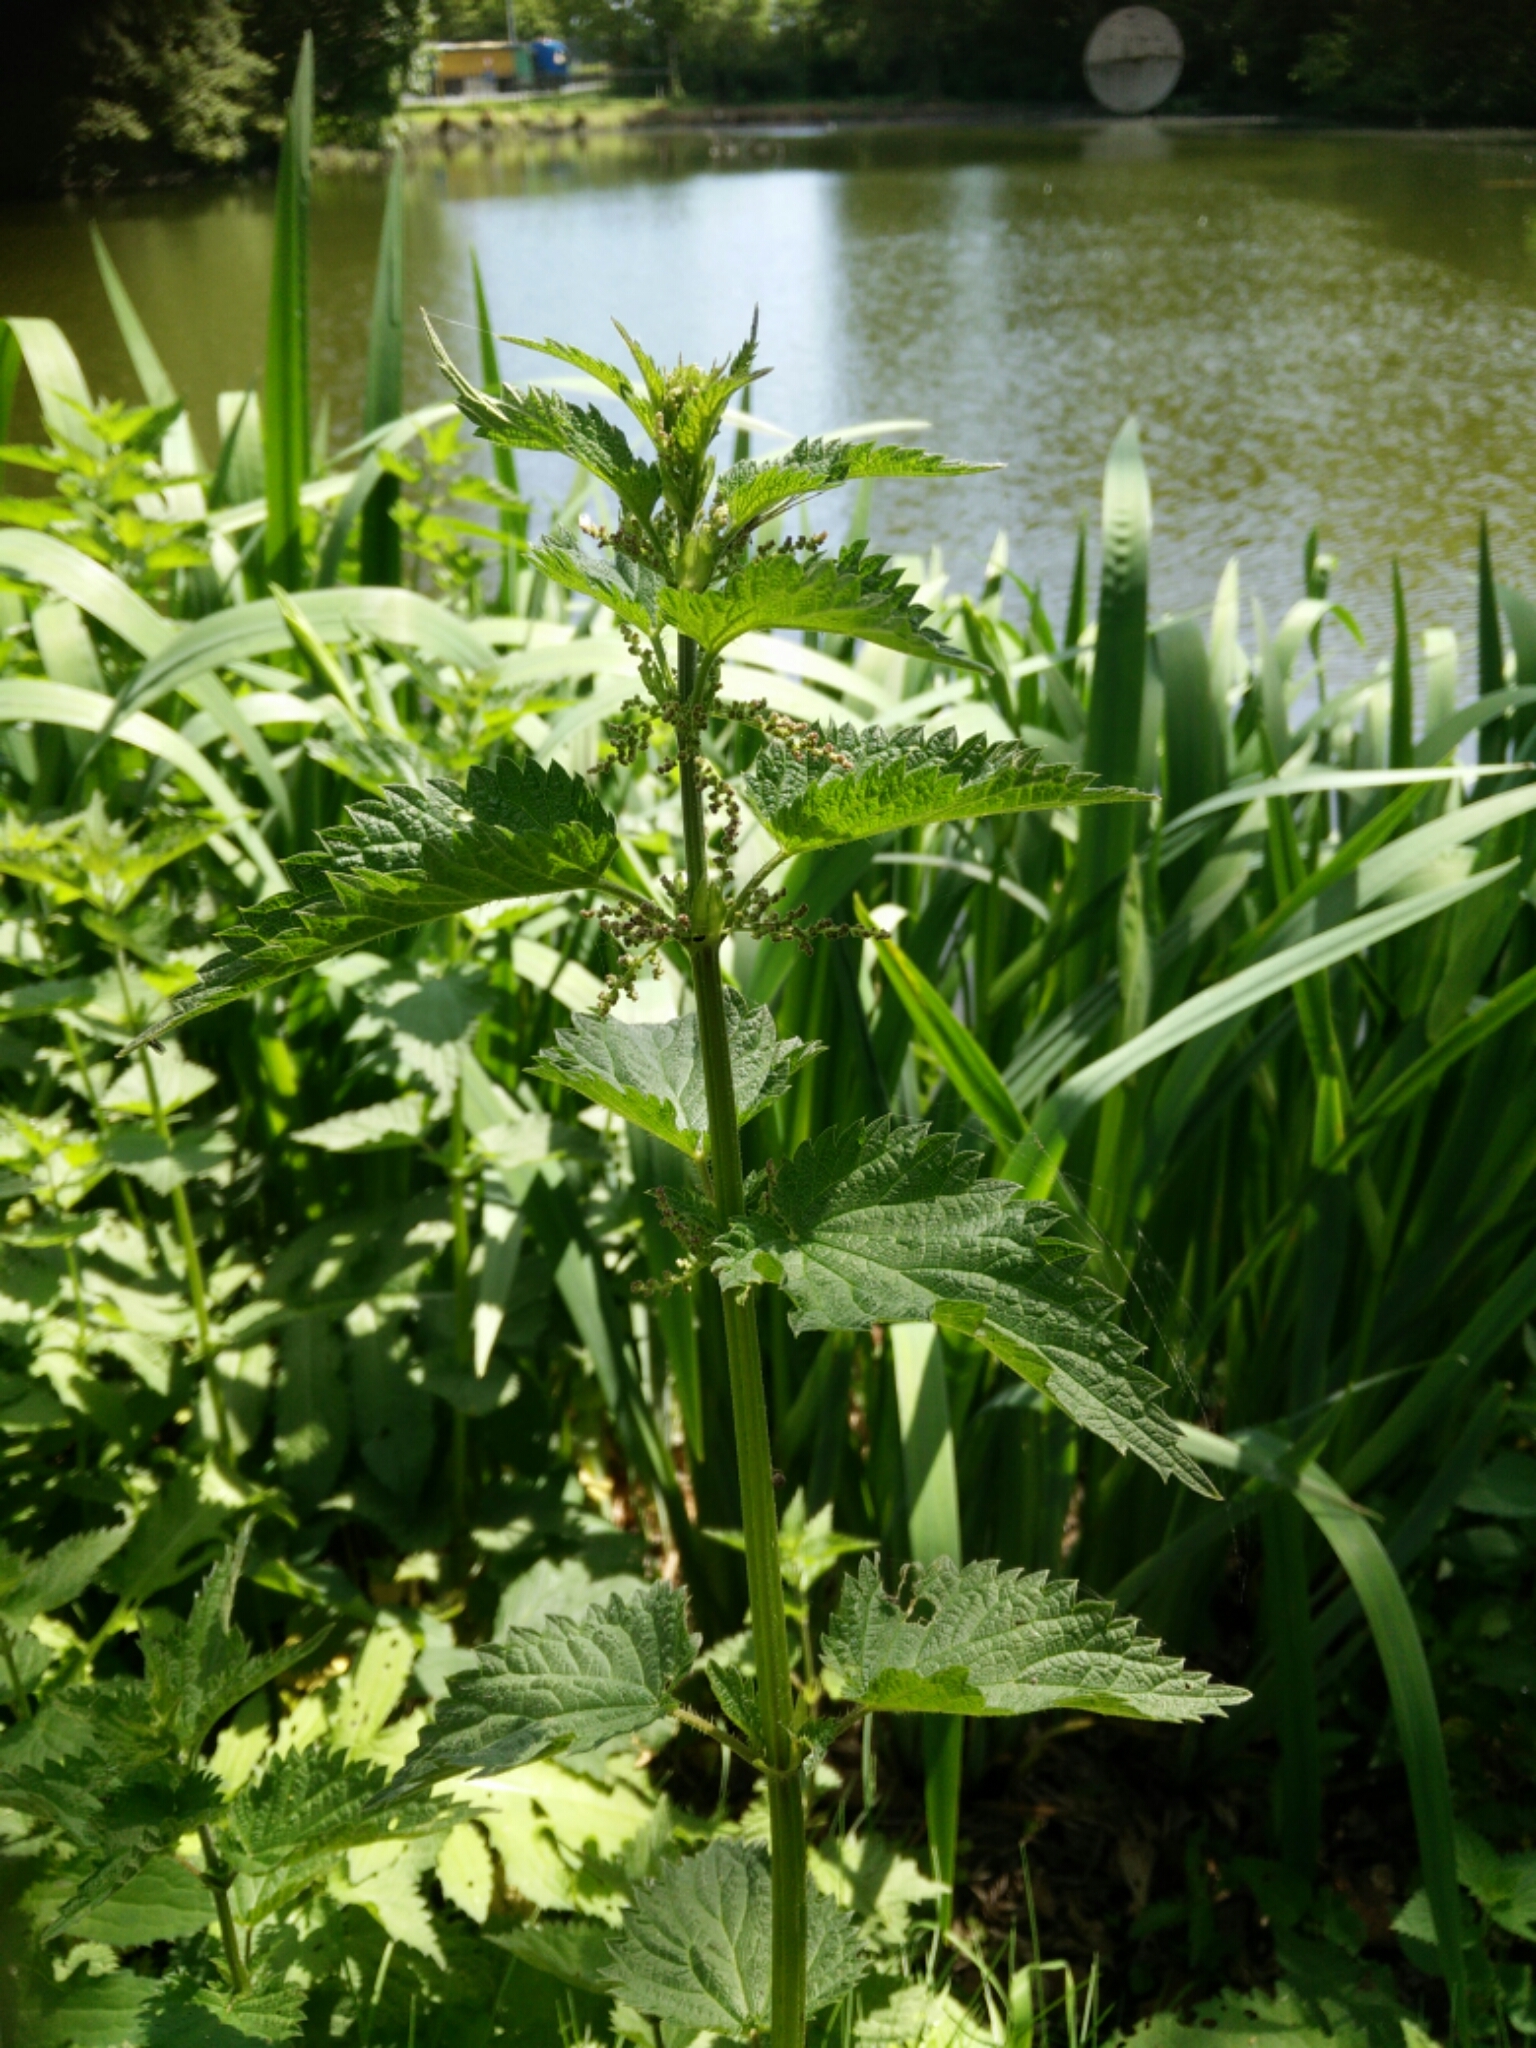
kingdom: Plantae
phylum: Tracheophyta
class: Magnoliopsida
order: Rosales
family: Urticaceae
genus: Urtica
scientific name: Urtica dioica
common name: Common nettle
